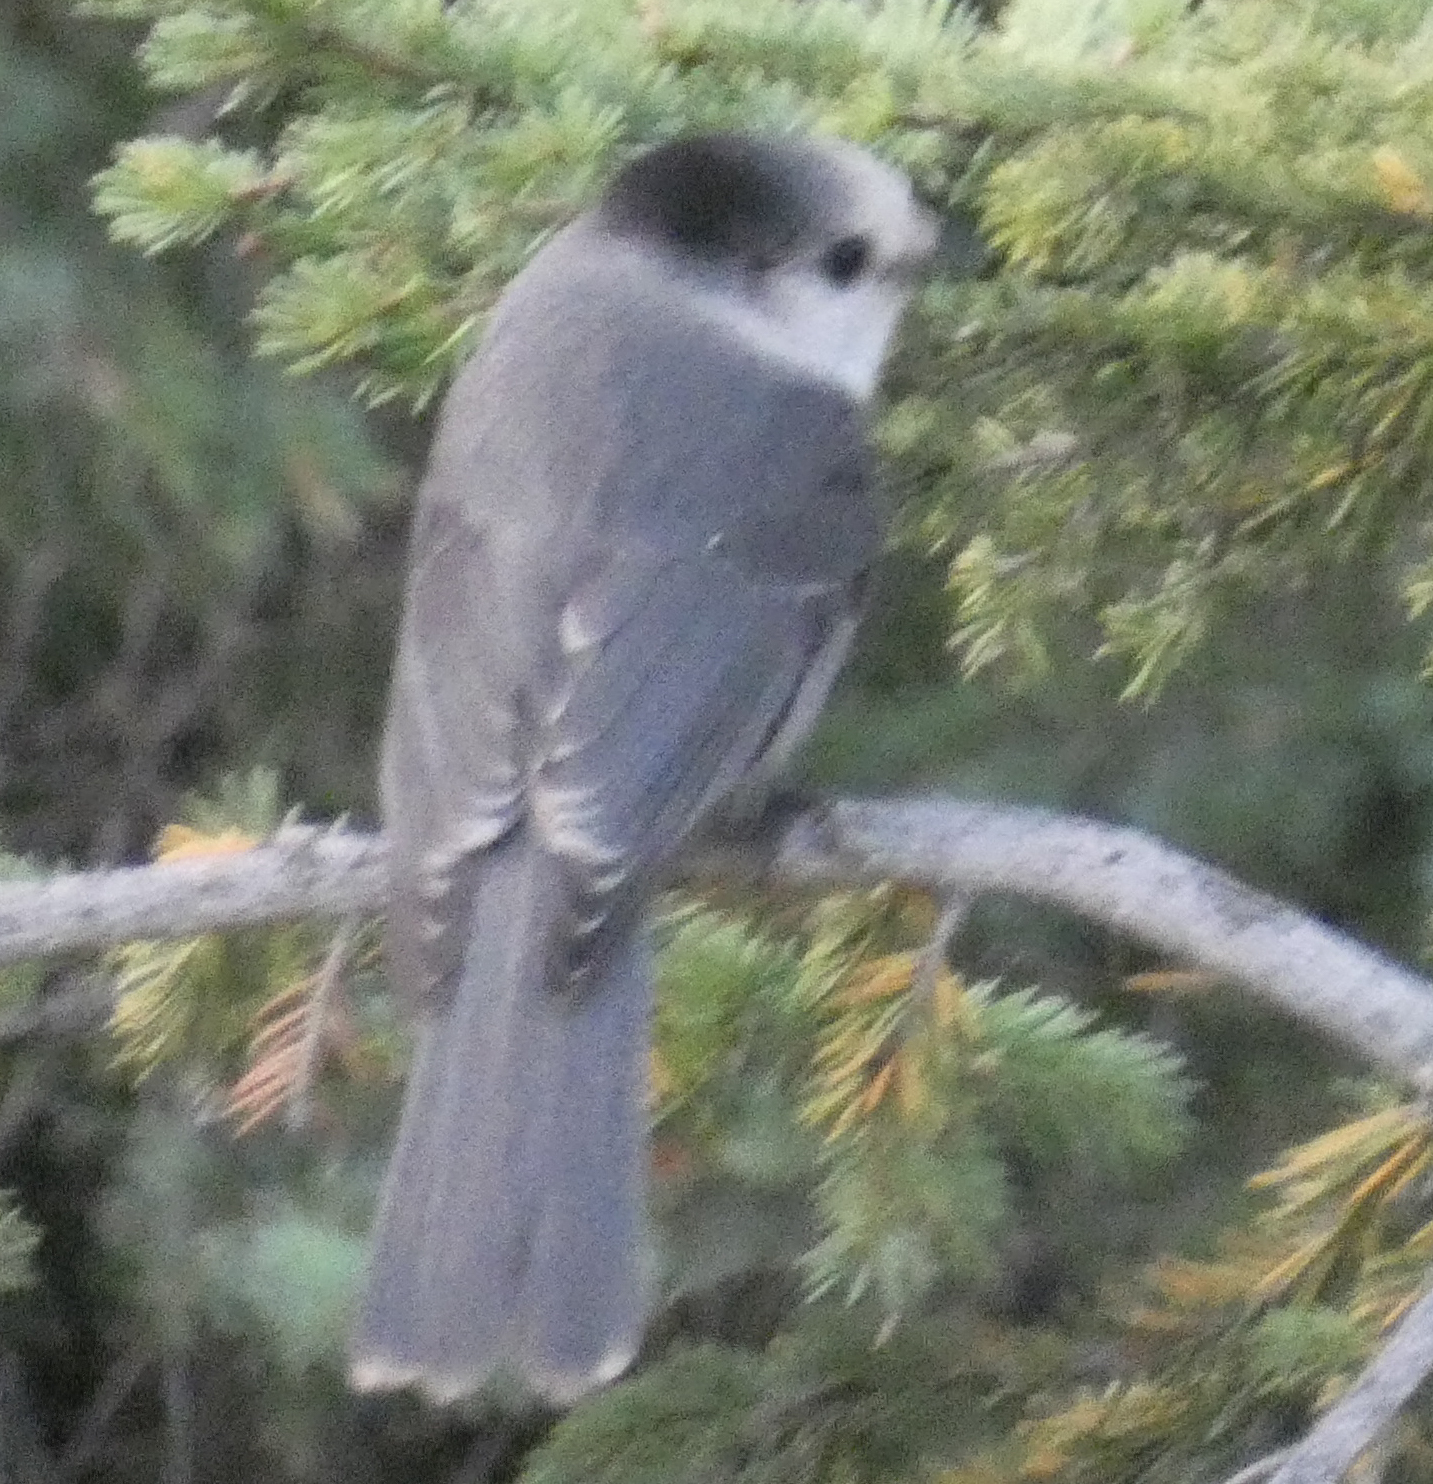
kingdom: Animalia
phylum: Chordata
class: Aves
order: Passeriformes
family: Corvidae
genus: Perisoreus
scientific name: Perisoreus canadensis
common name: Gray jay
